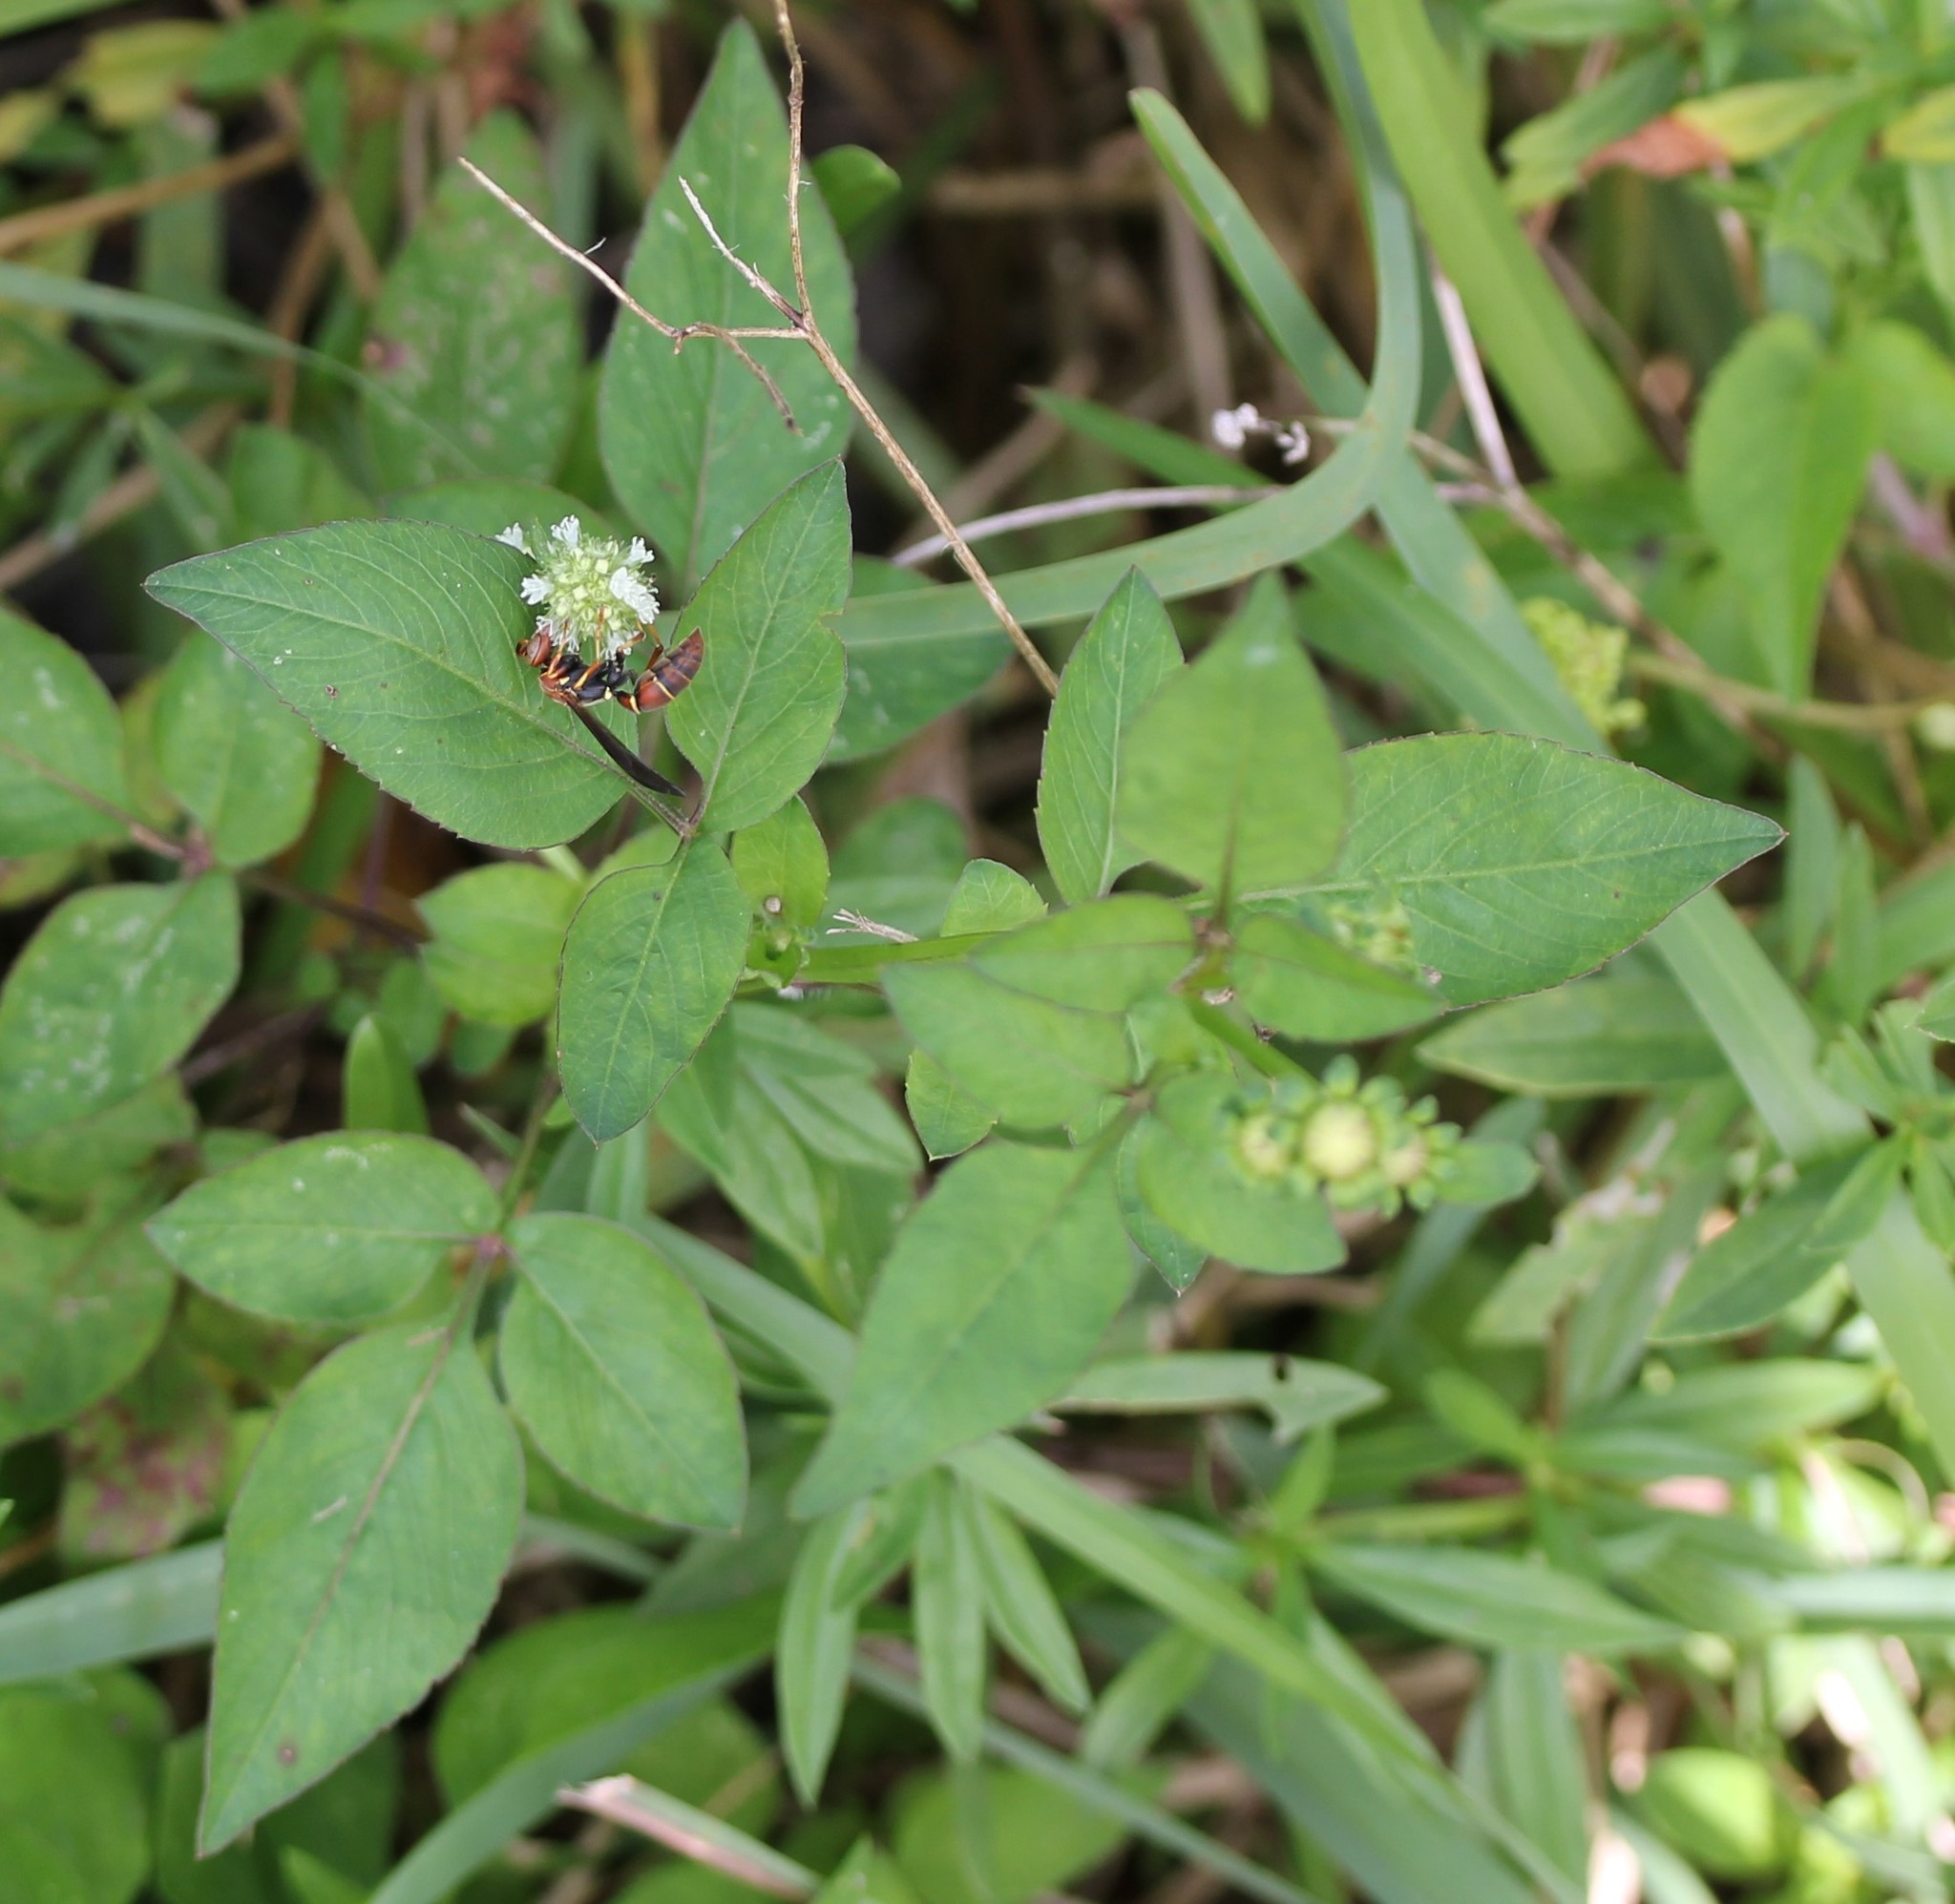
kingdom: Plantae
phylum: Tracheophyta
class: Magnoliopsida
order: Asterales
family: Asteraceae
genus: Bidens
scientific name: Bidens alba
